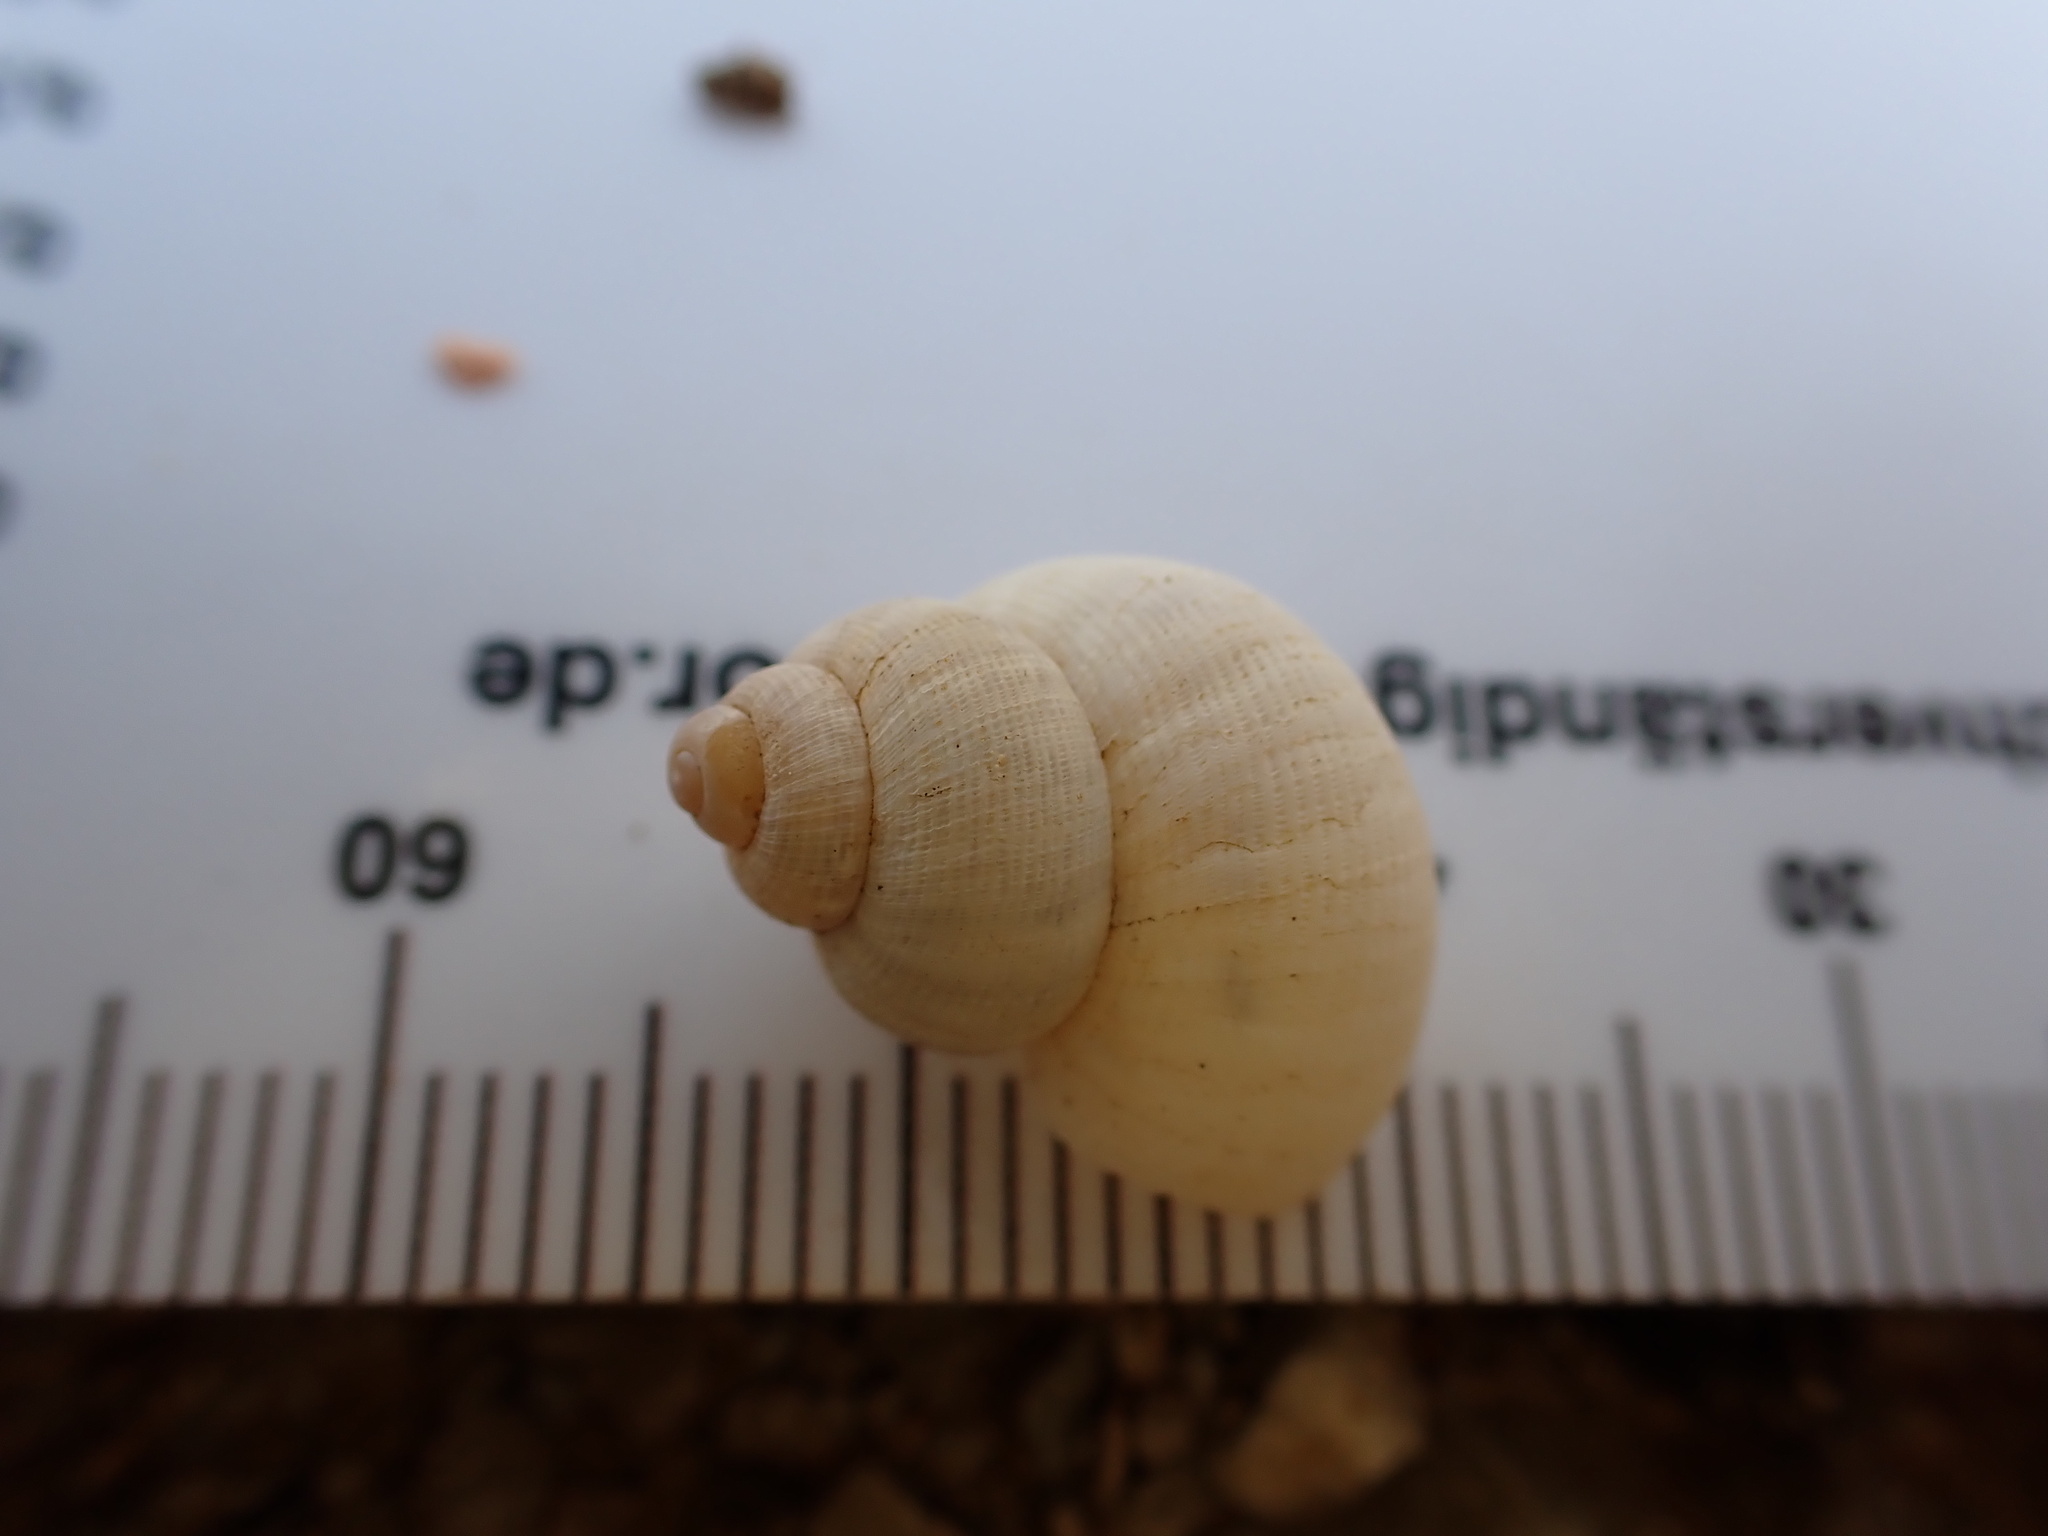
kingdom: Animalia
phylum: Mollusca
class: Gastropoda
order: Littorinimorpha
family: Pomatiidae
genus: Pomatias
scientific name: Pomatias elegans
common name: Red-mouthed snail
